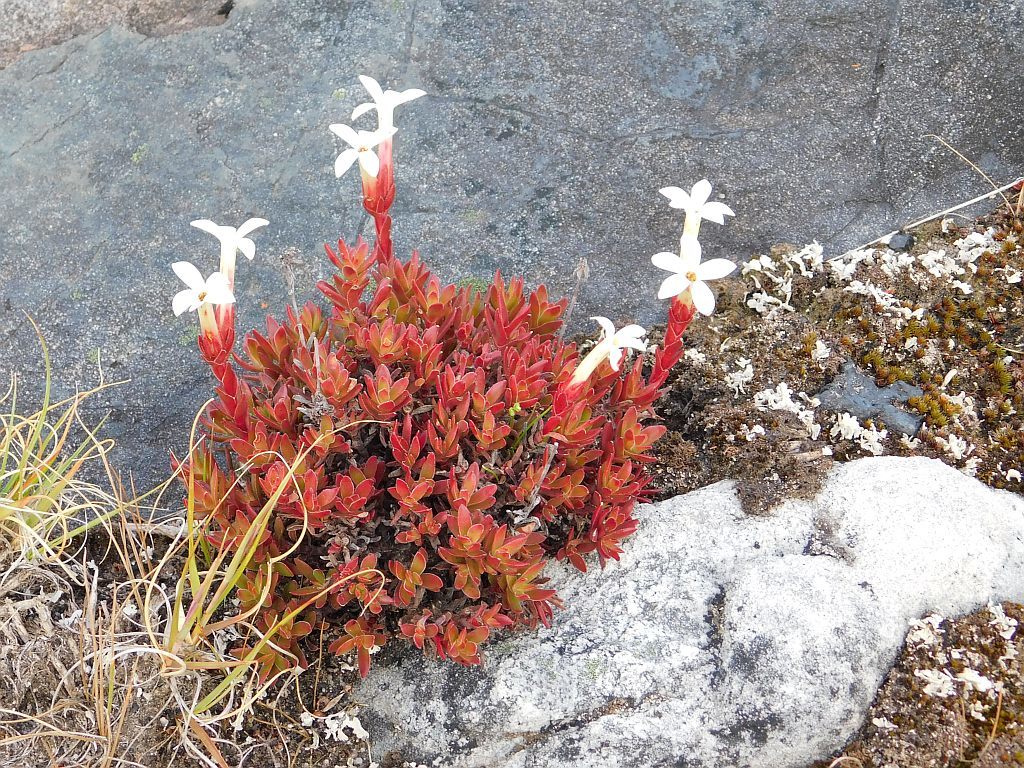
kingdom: Plantae
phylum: Tracheophyta
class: Magnoliopsida
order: Saxifragales
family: Crassulaceae
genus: Crassula
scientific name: Crassula obtusa
